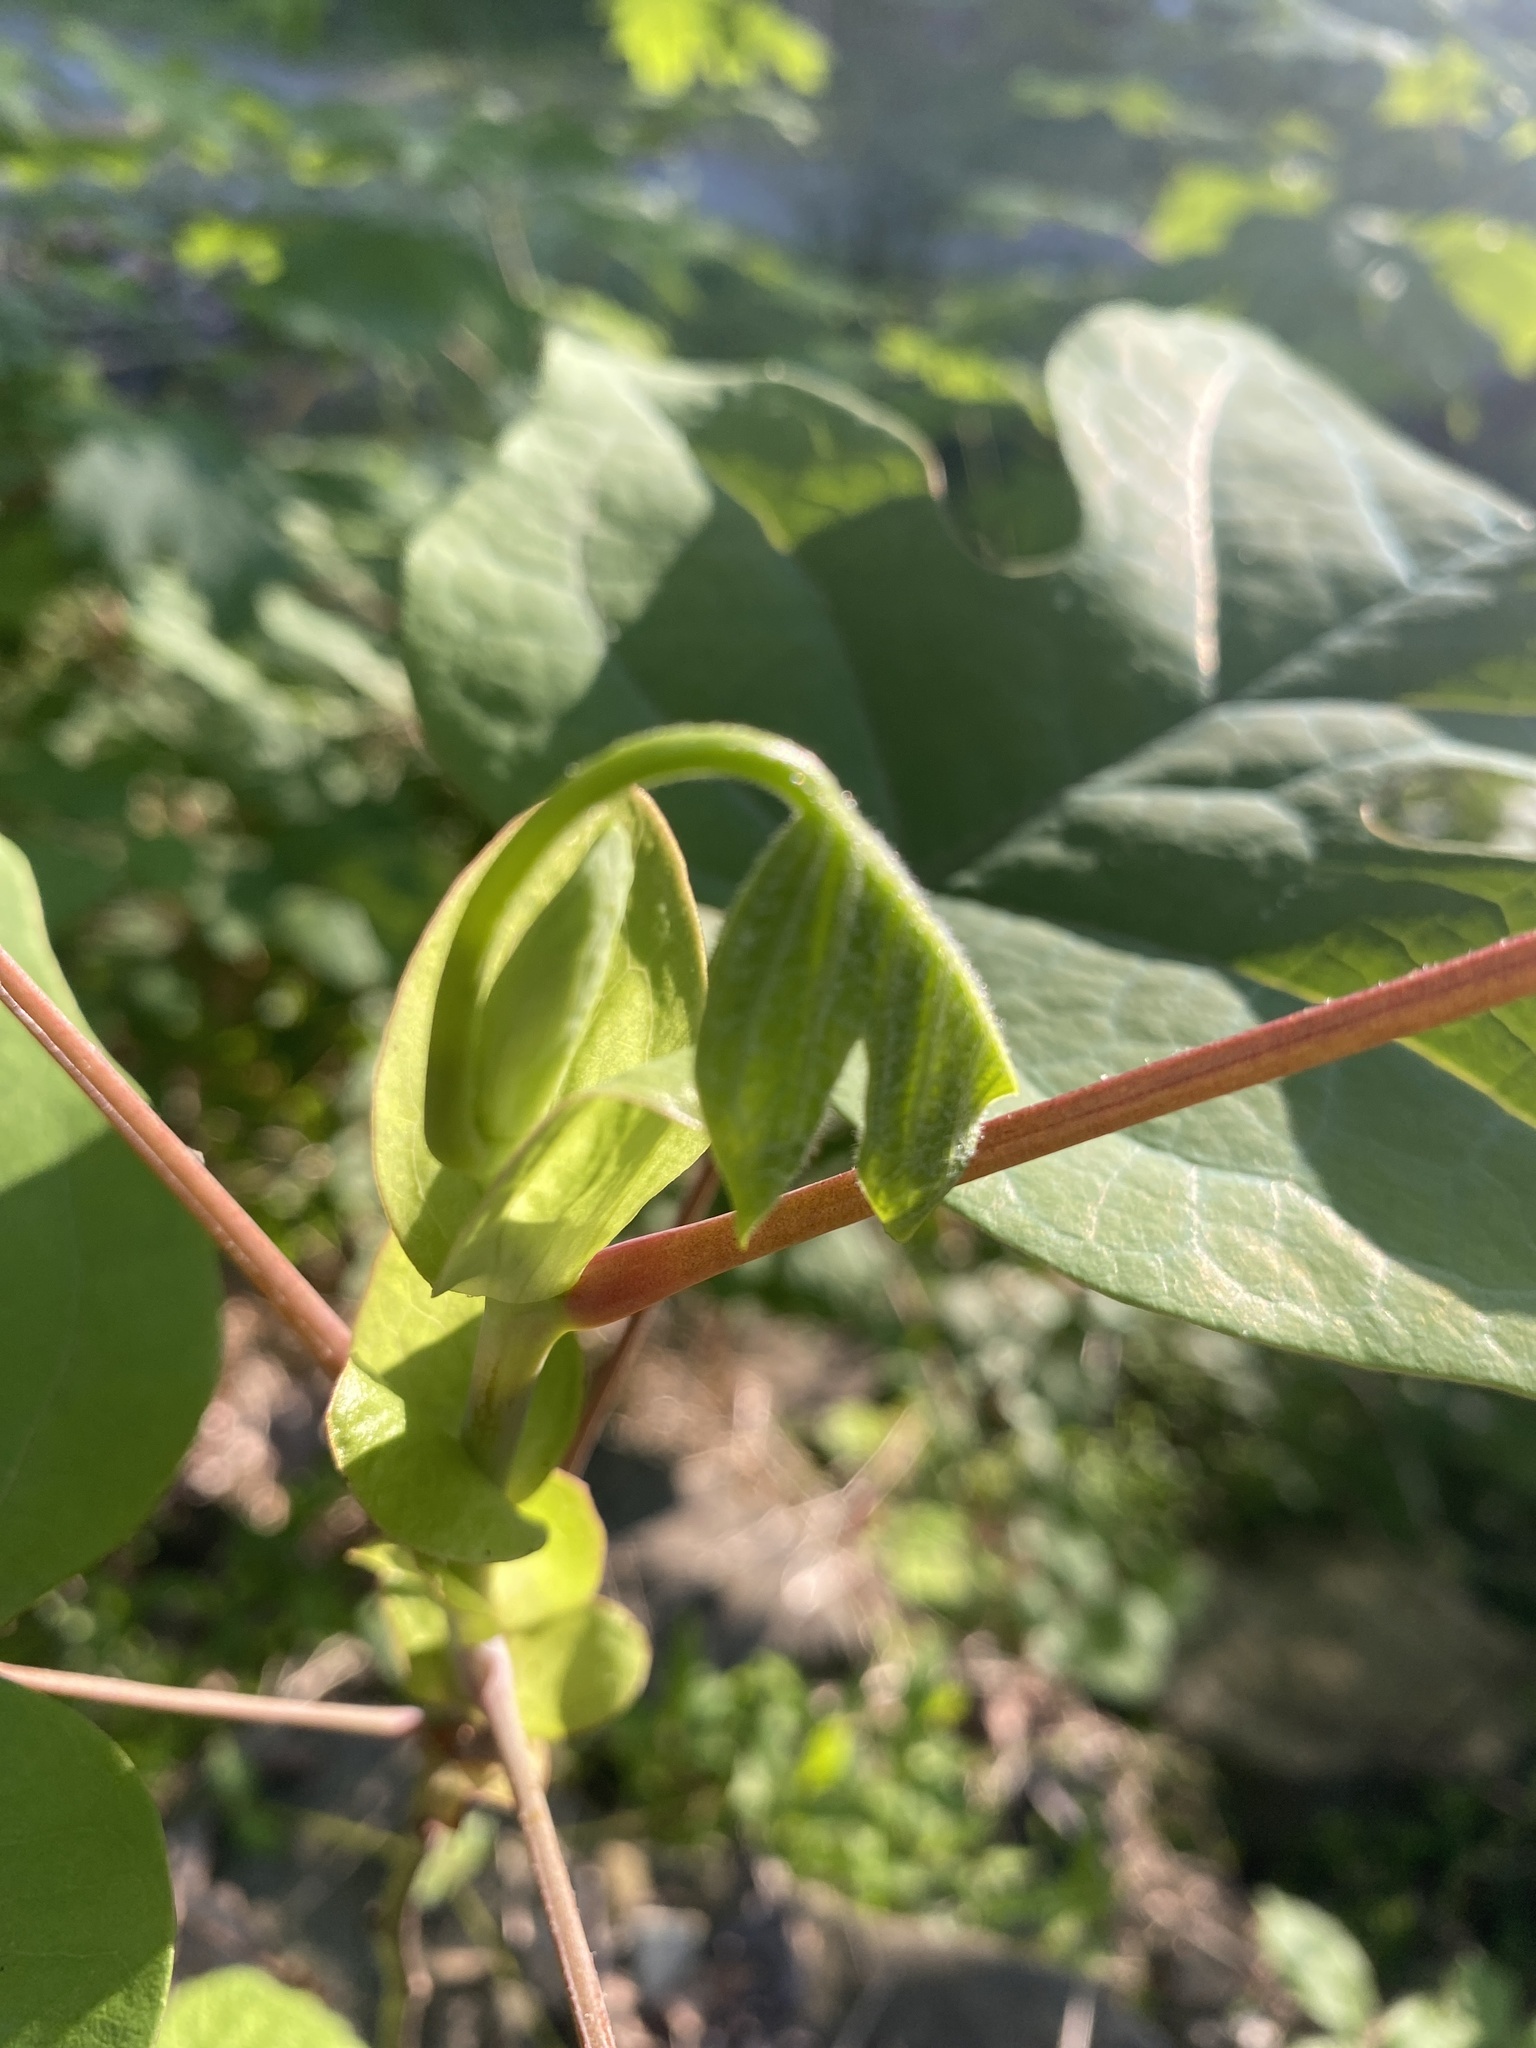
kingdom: Plantae
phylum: Tracheophyta
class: Magnoliopsida
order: Magnoliales
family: Magnoliaceae
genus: Liriodendron
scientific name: Liriodendron tulipifera
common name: Tulip tree
